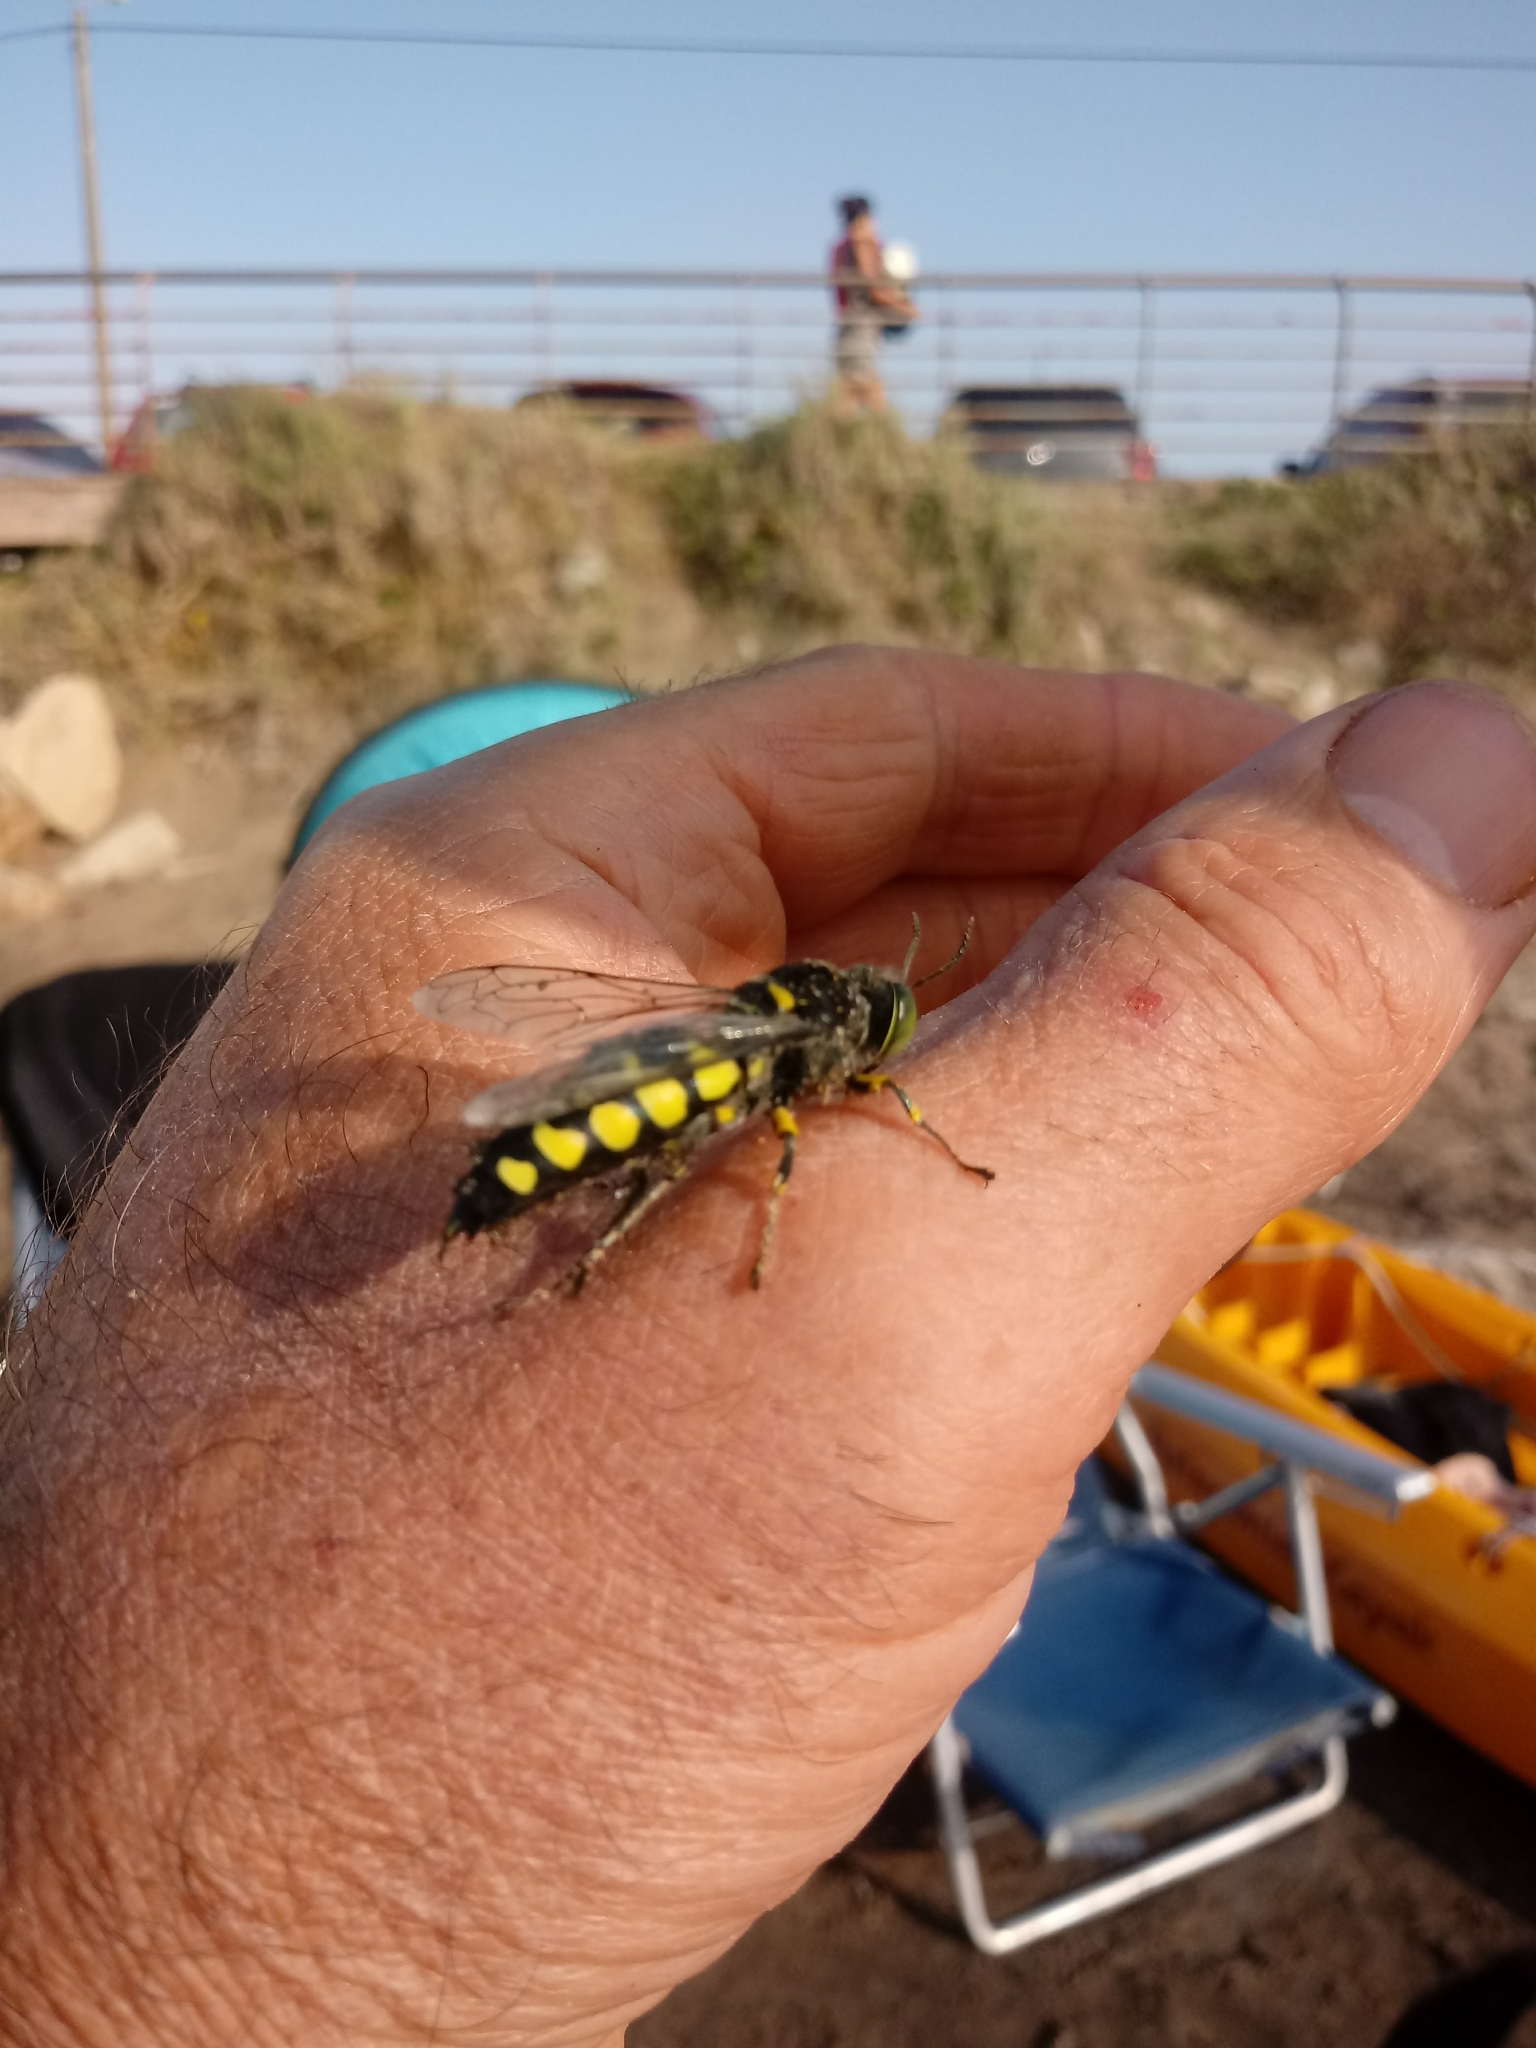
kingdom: Animalia
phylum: Arthropoda
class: Insecta
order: Hymenoptera
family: Crabronidae
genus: Stictia
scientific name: Stictia flexuosa
